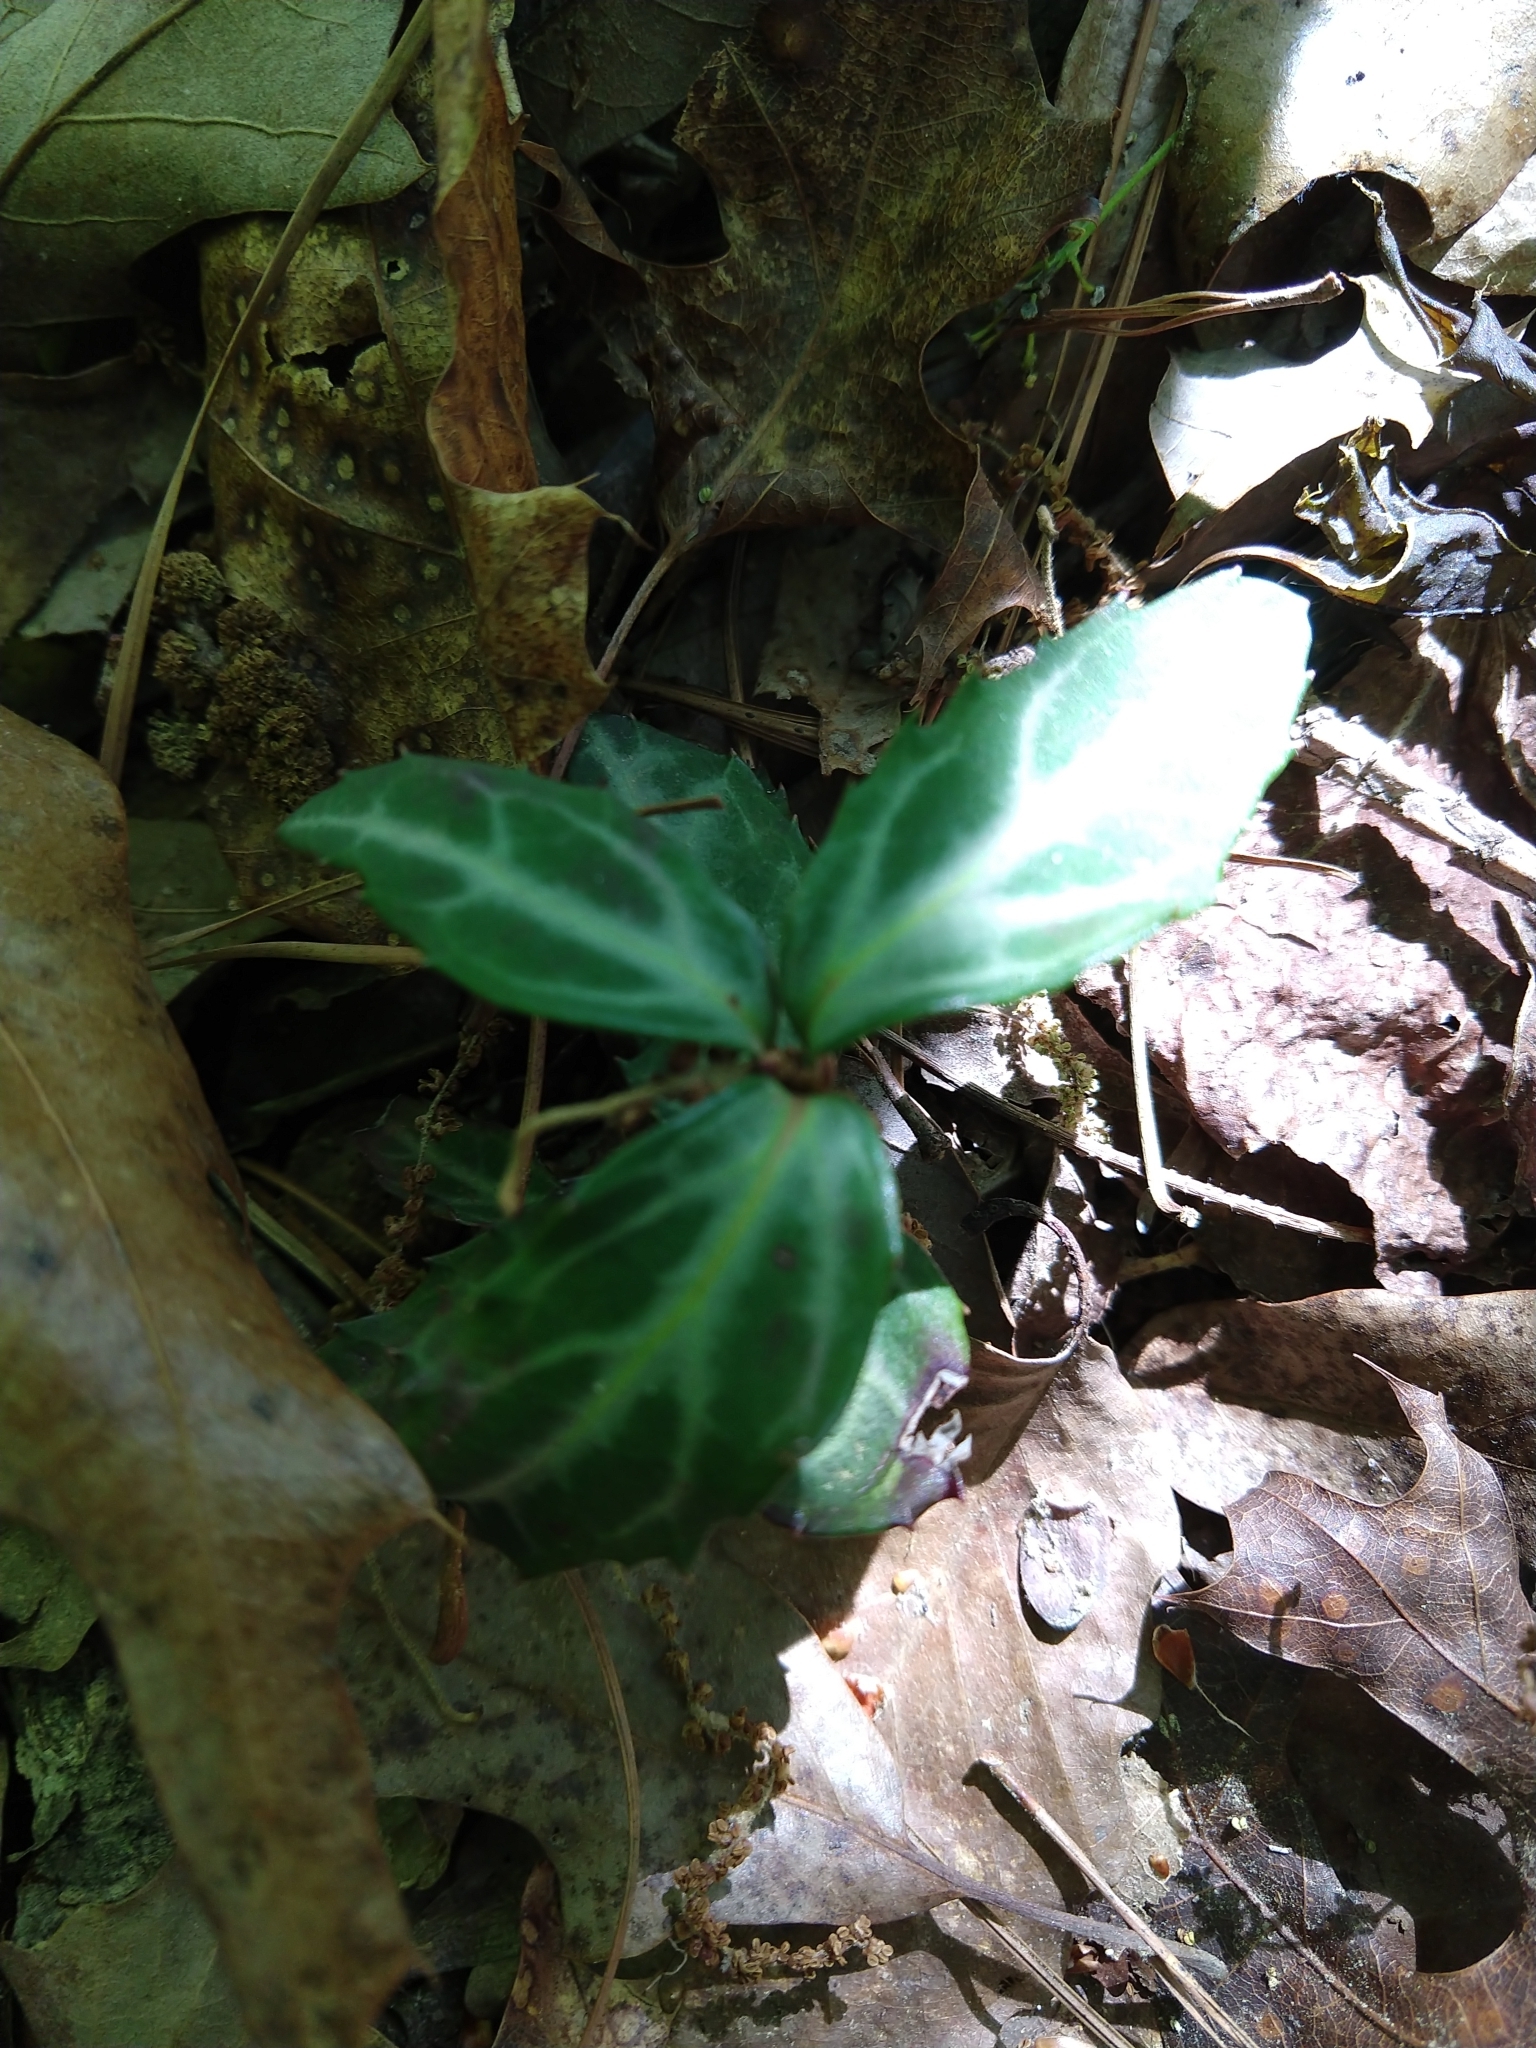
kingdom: Plantae
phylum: Tracheophyta
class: Magnoliopsida
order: Ericales
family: Ericaceae
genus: Chimaphila
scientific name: Chimaphila maculata
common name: Spotted pipsissewa
